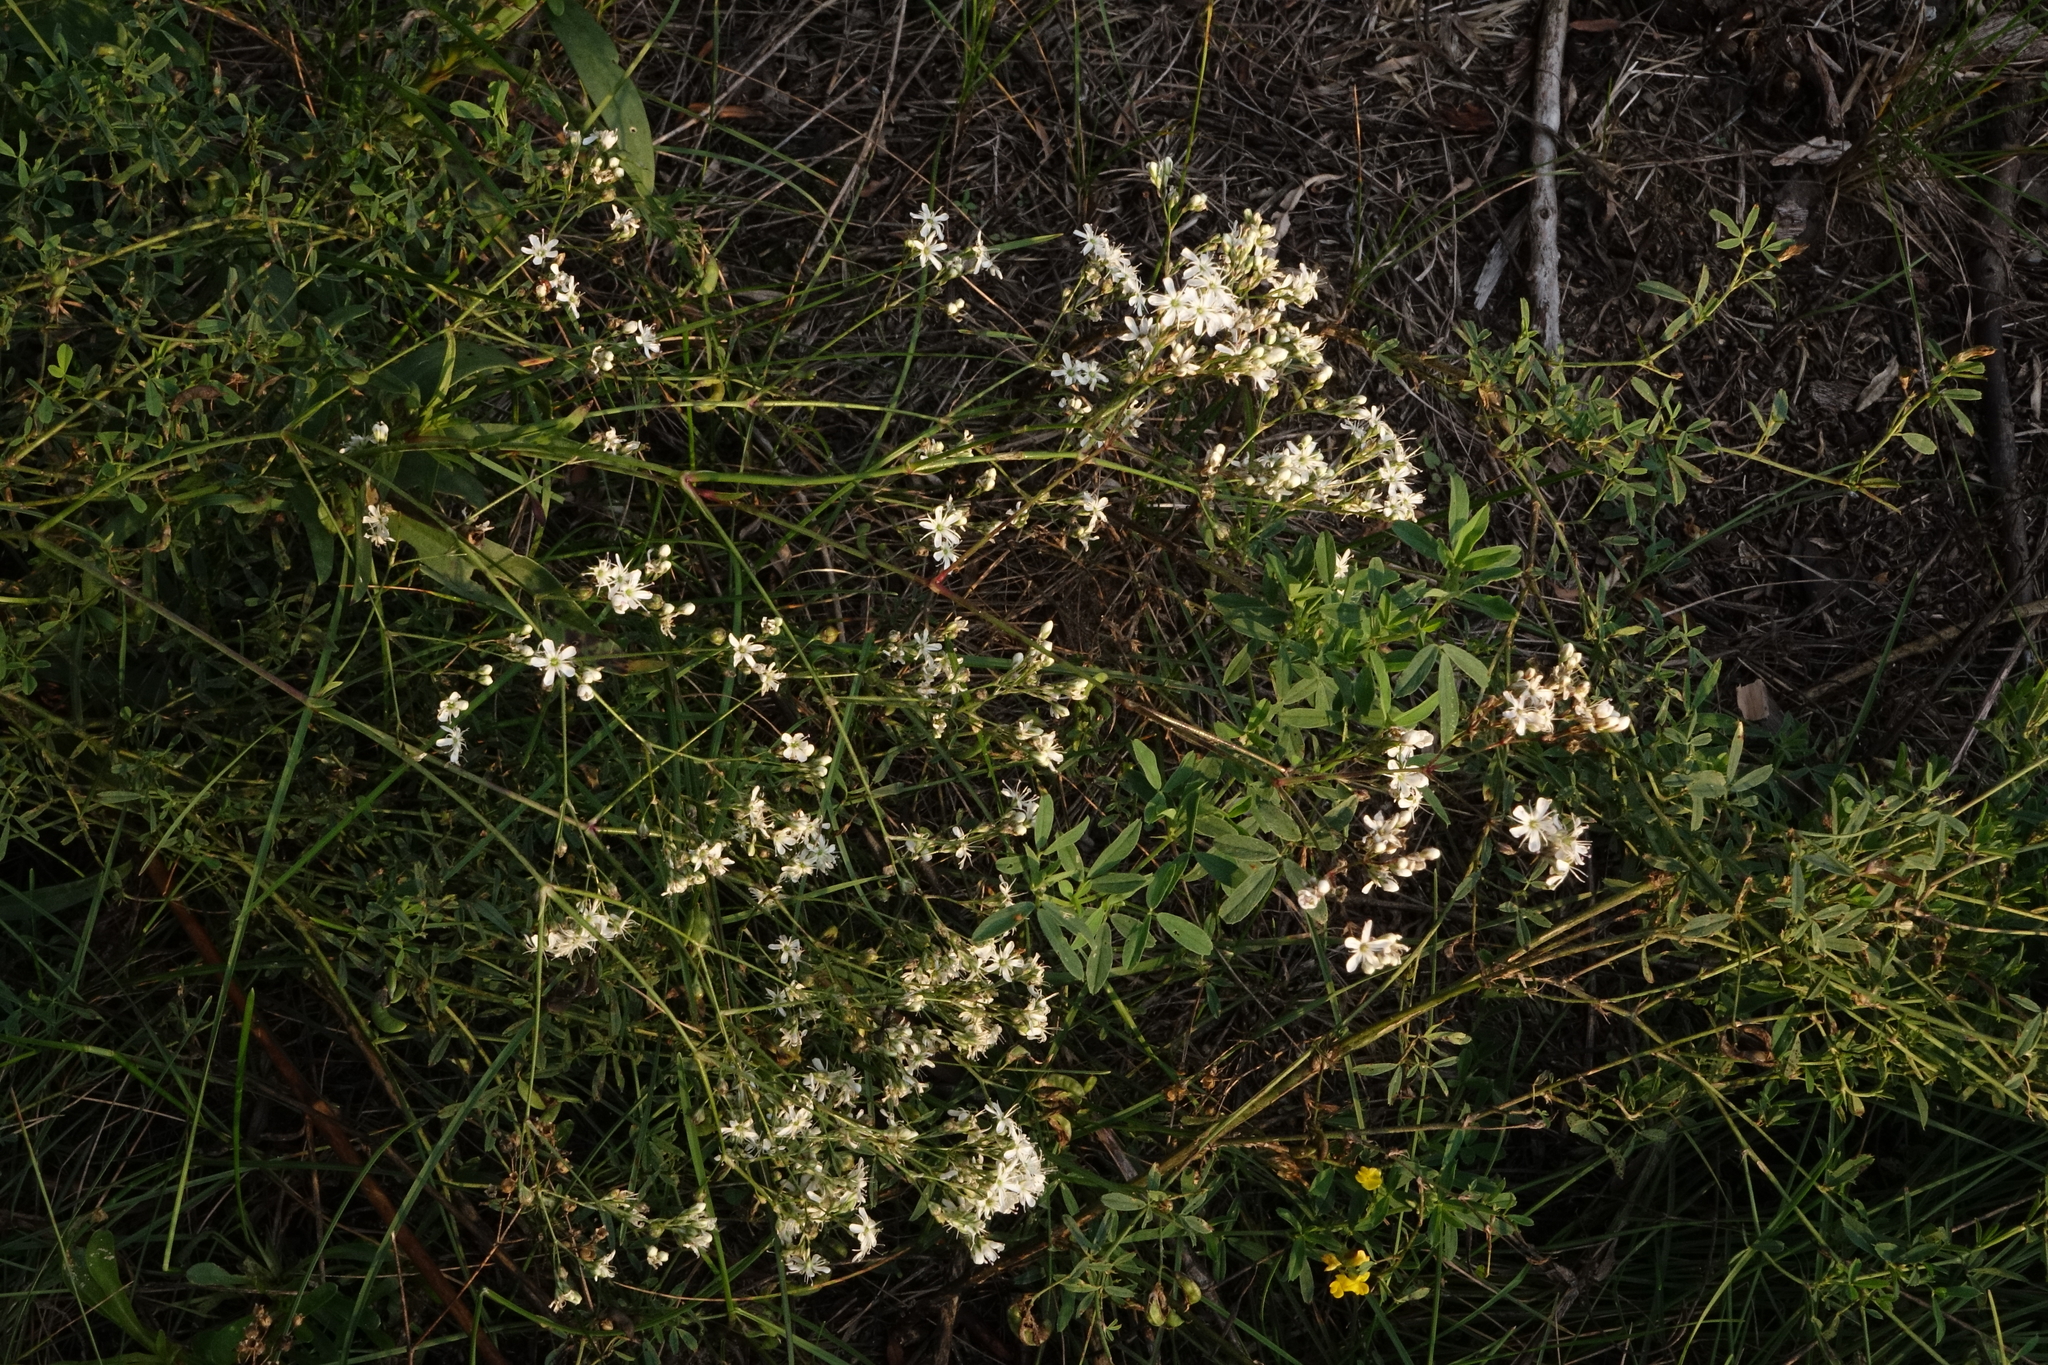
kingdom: Plantae
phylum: Tracheophyta
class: Magnoliopsida
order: Caryophyllales
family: Caryophyllaceae
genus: Gypsophila
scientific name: Gypsophila altissima
